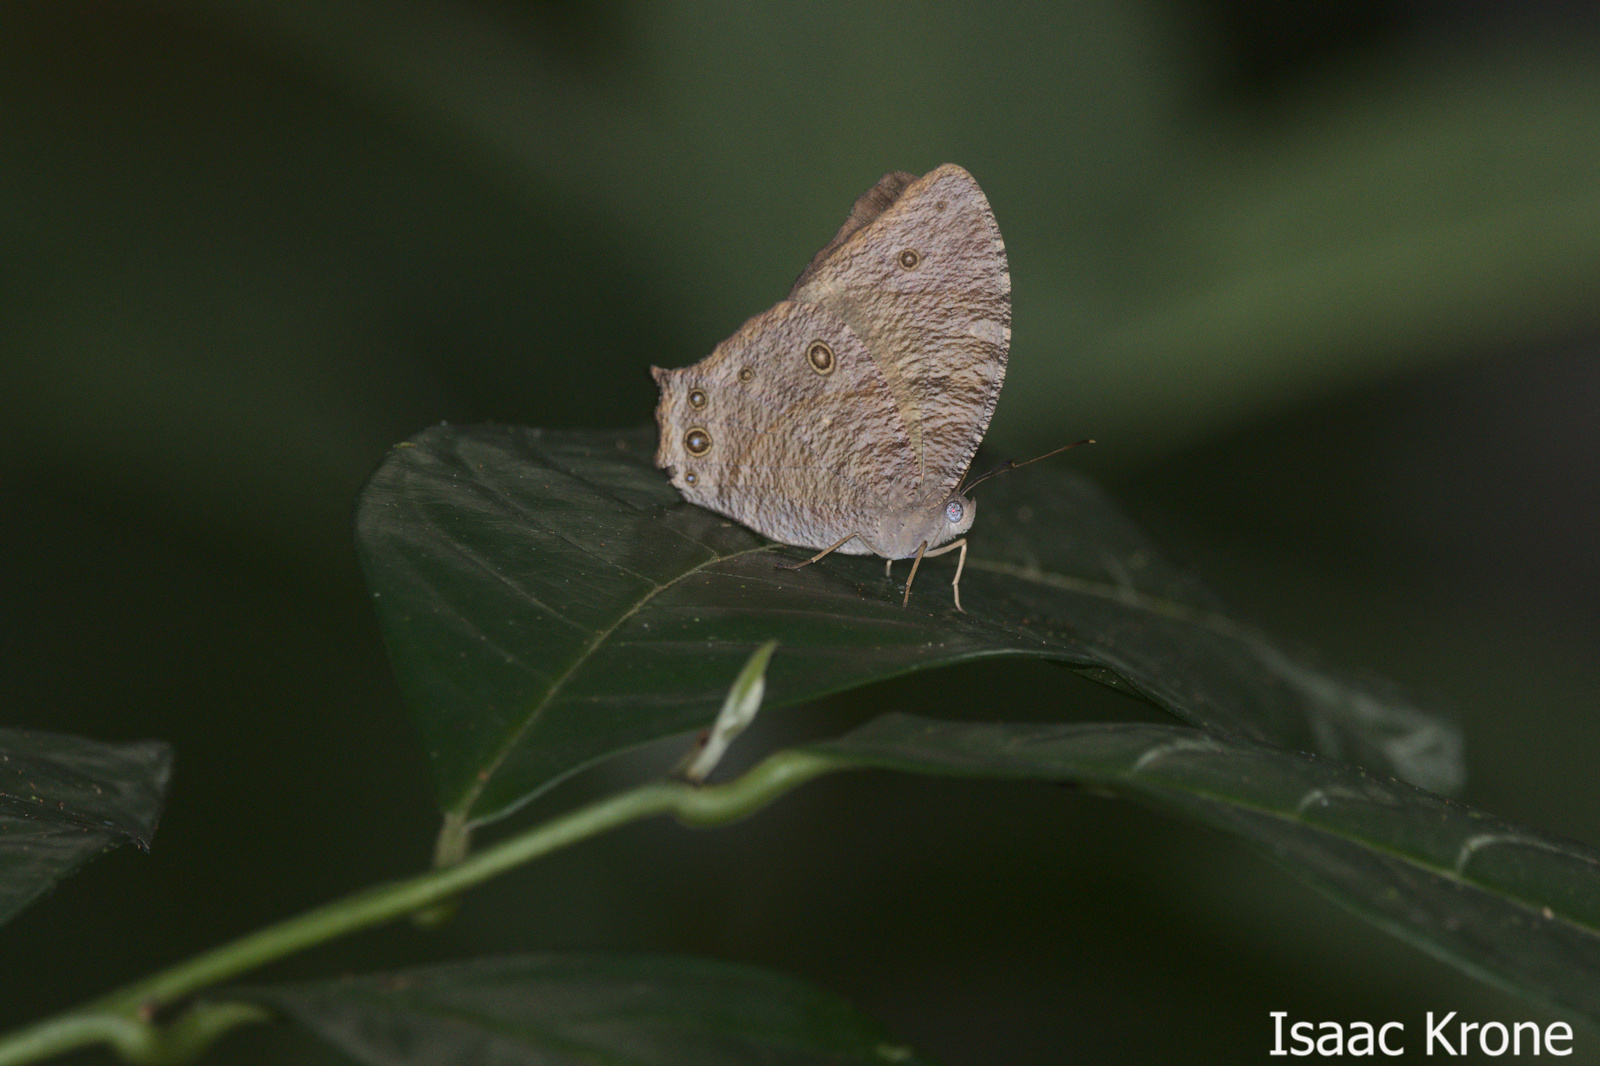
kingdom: Animalia
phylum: Arthropoda
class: Insecta
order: Lepidoptera
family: Nymphalidae
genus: Melanitis
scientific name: Melanitis leda
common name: Twilight brown
